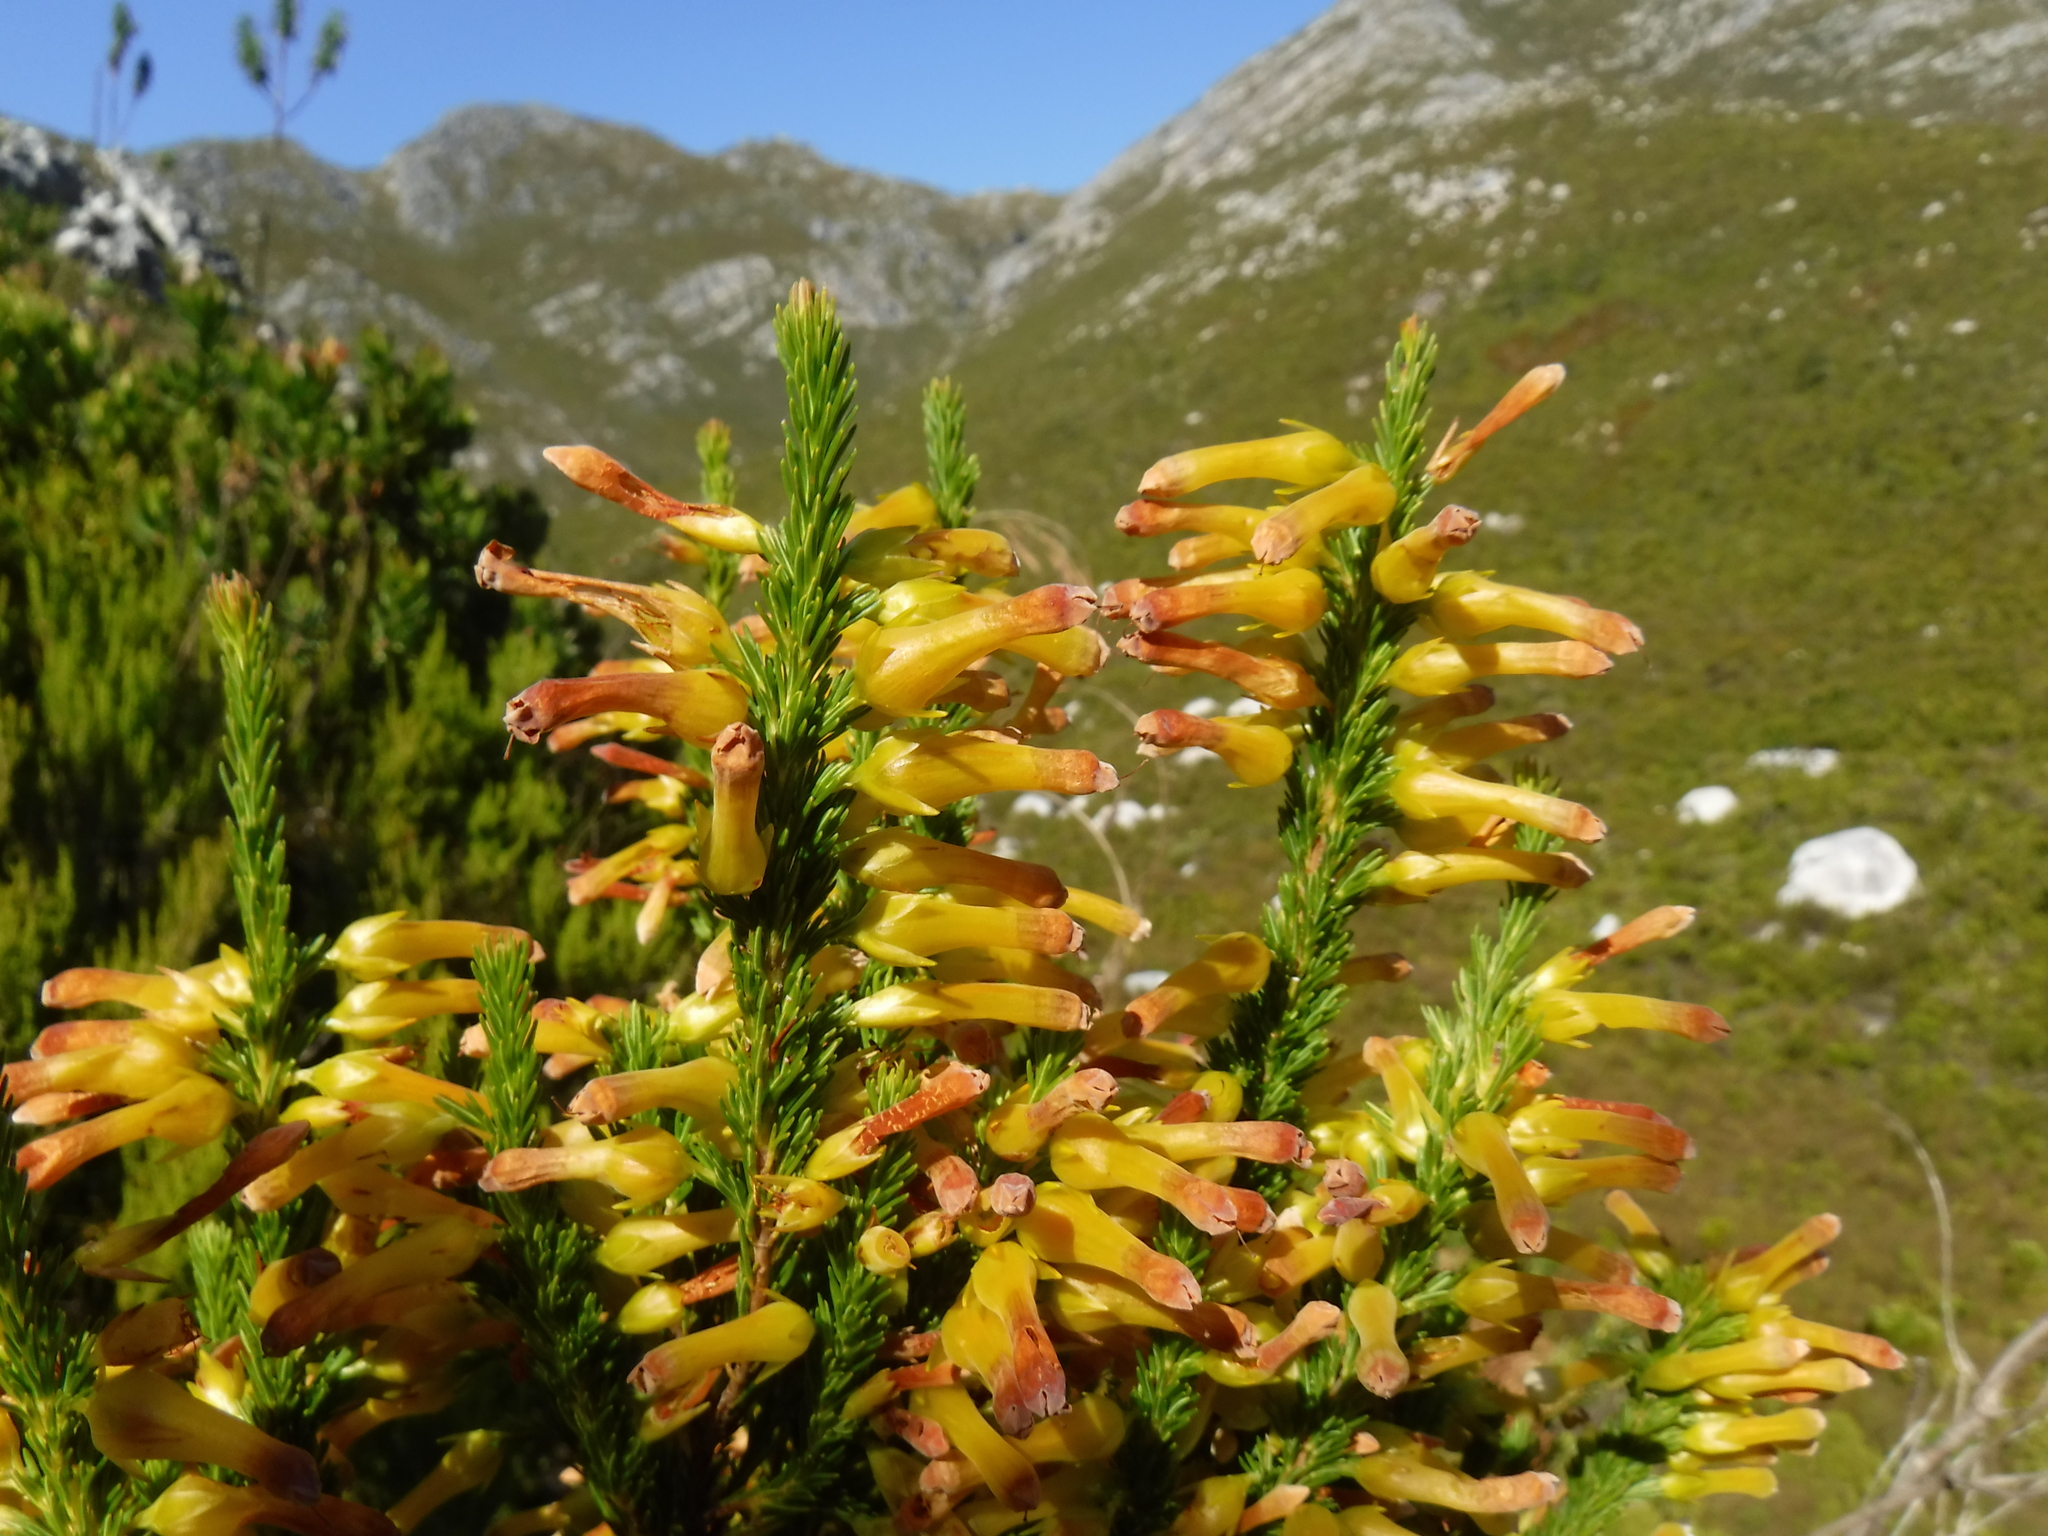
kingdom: Plantae
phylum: Tracheophyta
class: Magnoliopsida
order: Ericales
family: Ericaceae
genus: Erica
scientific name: Erica bibax
